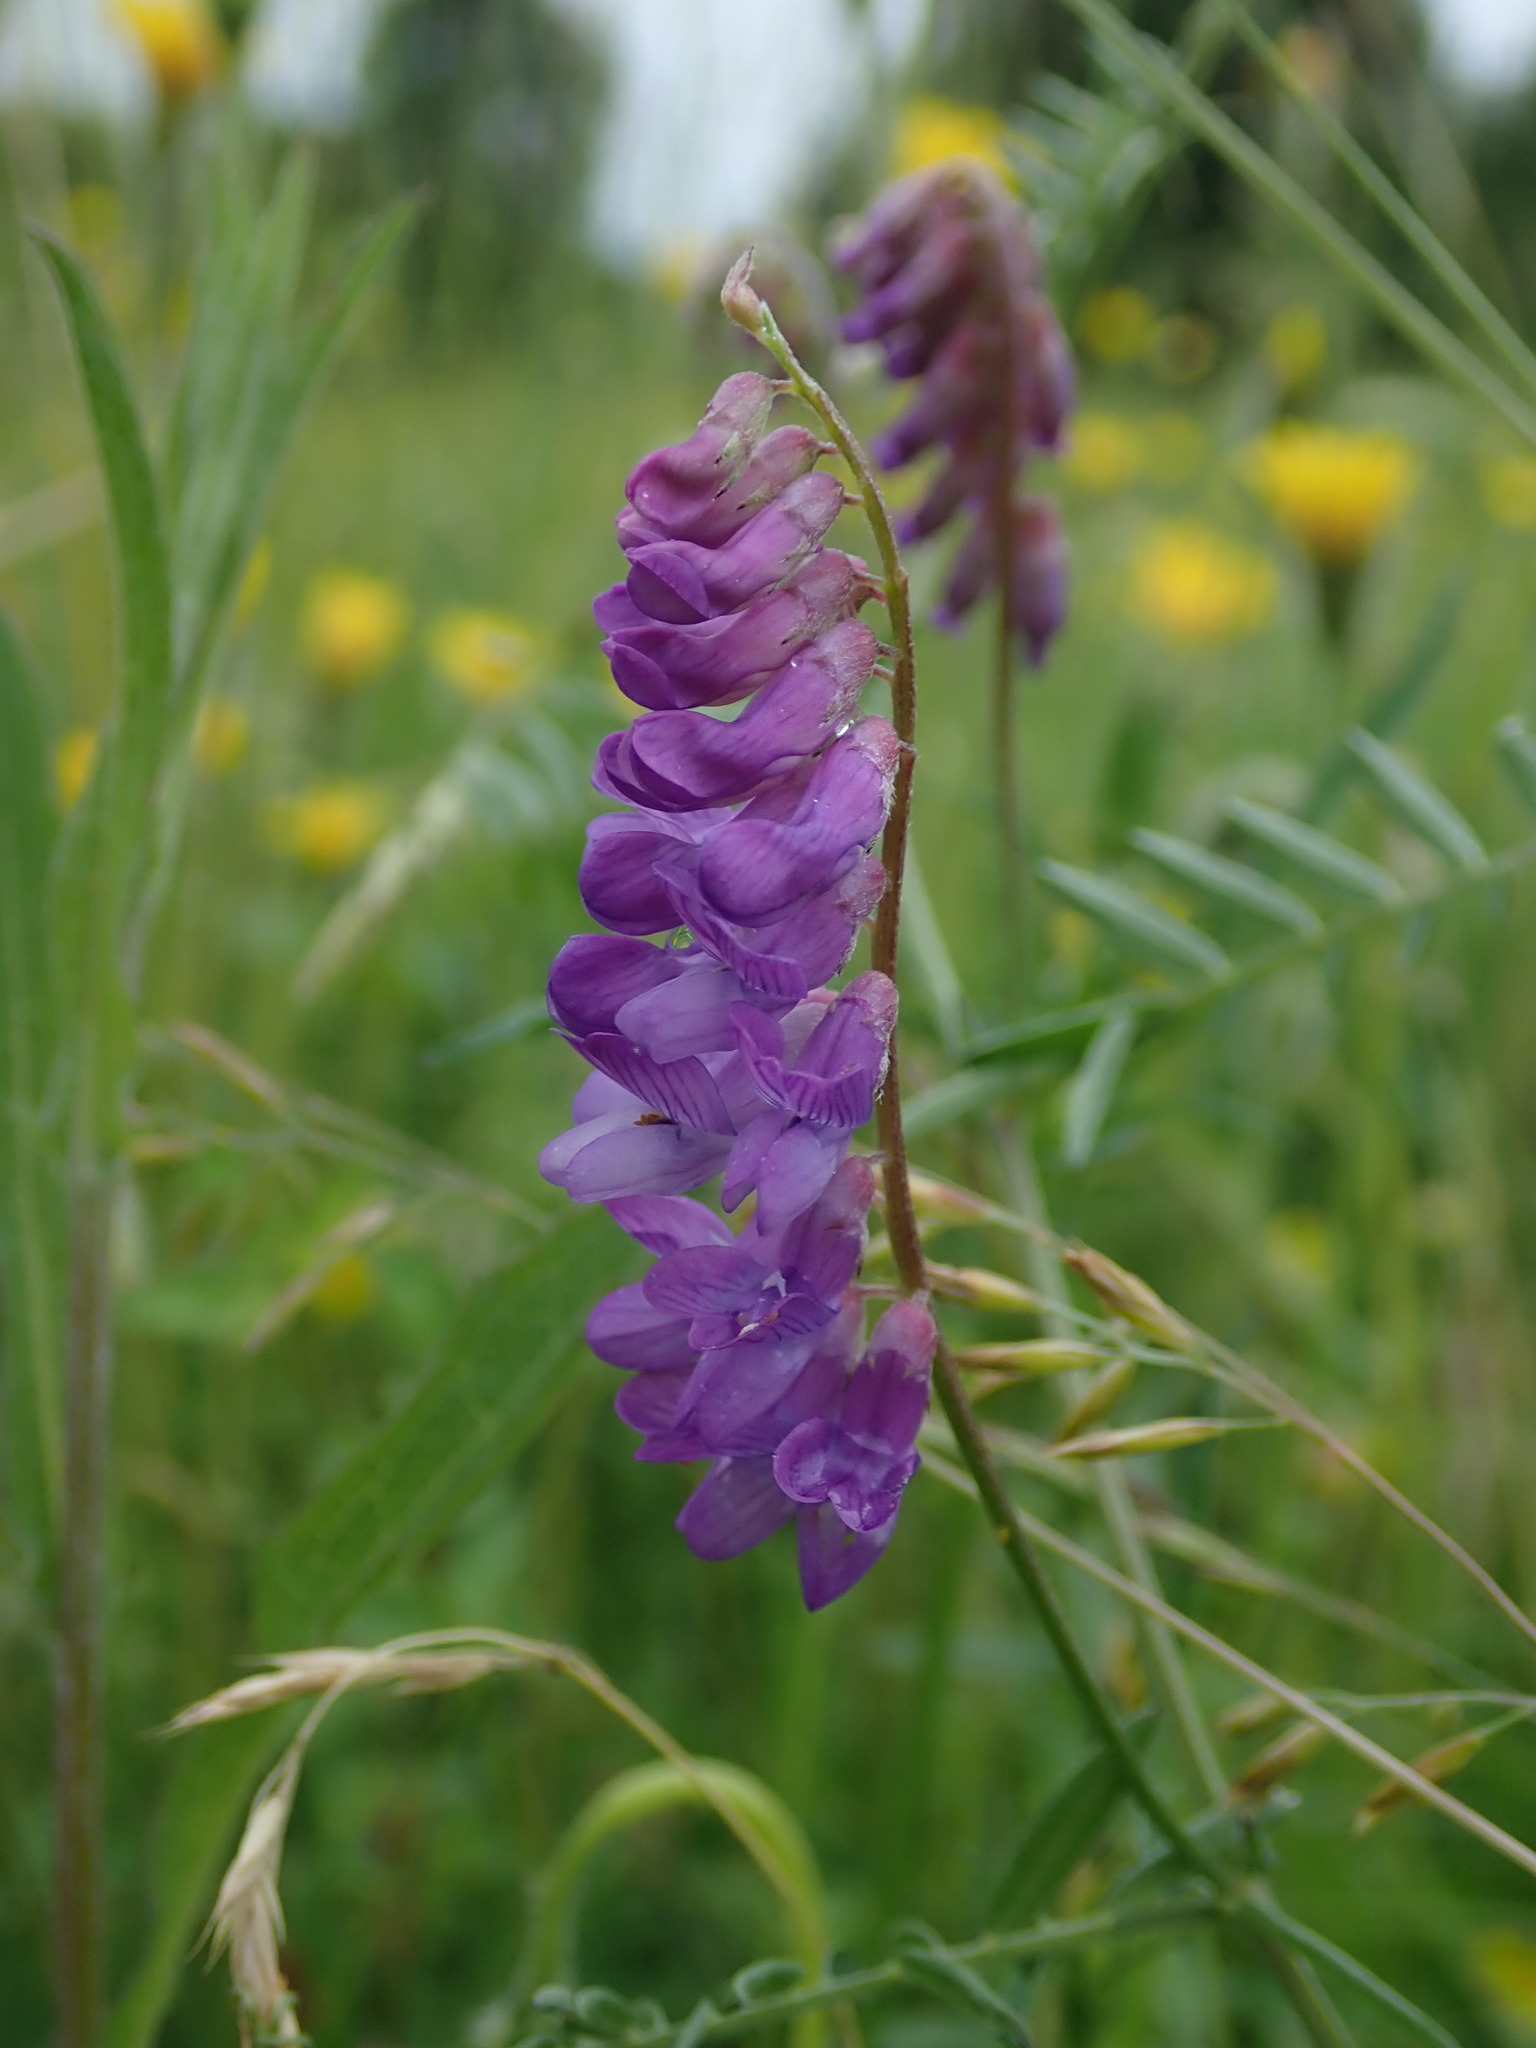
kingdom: Plantae
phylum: Tracheophyta
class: Magnoliopsida
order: Fabales
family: Fabaceae
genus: Vicia
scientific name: Vicia cracca
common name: Bird vetch
